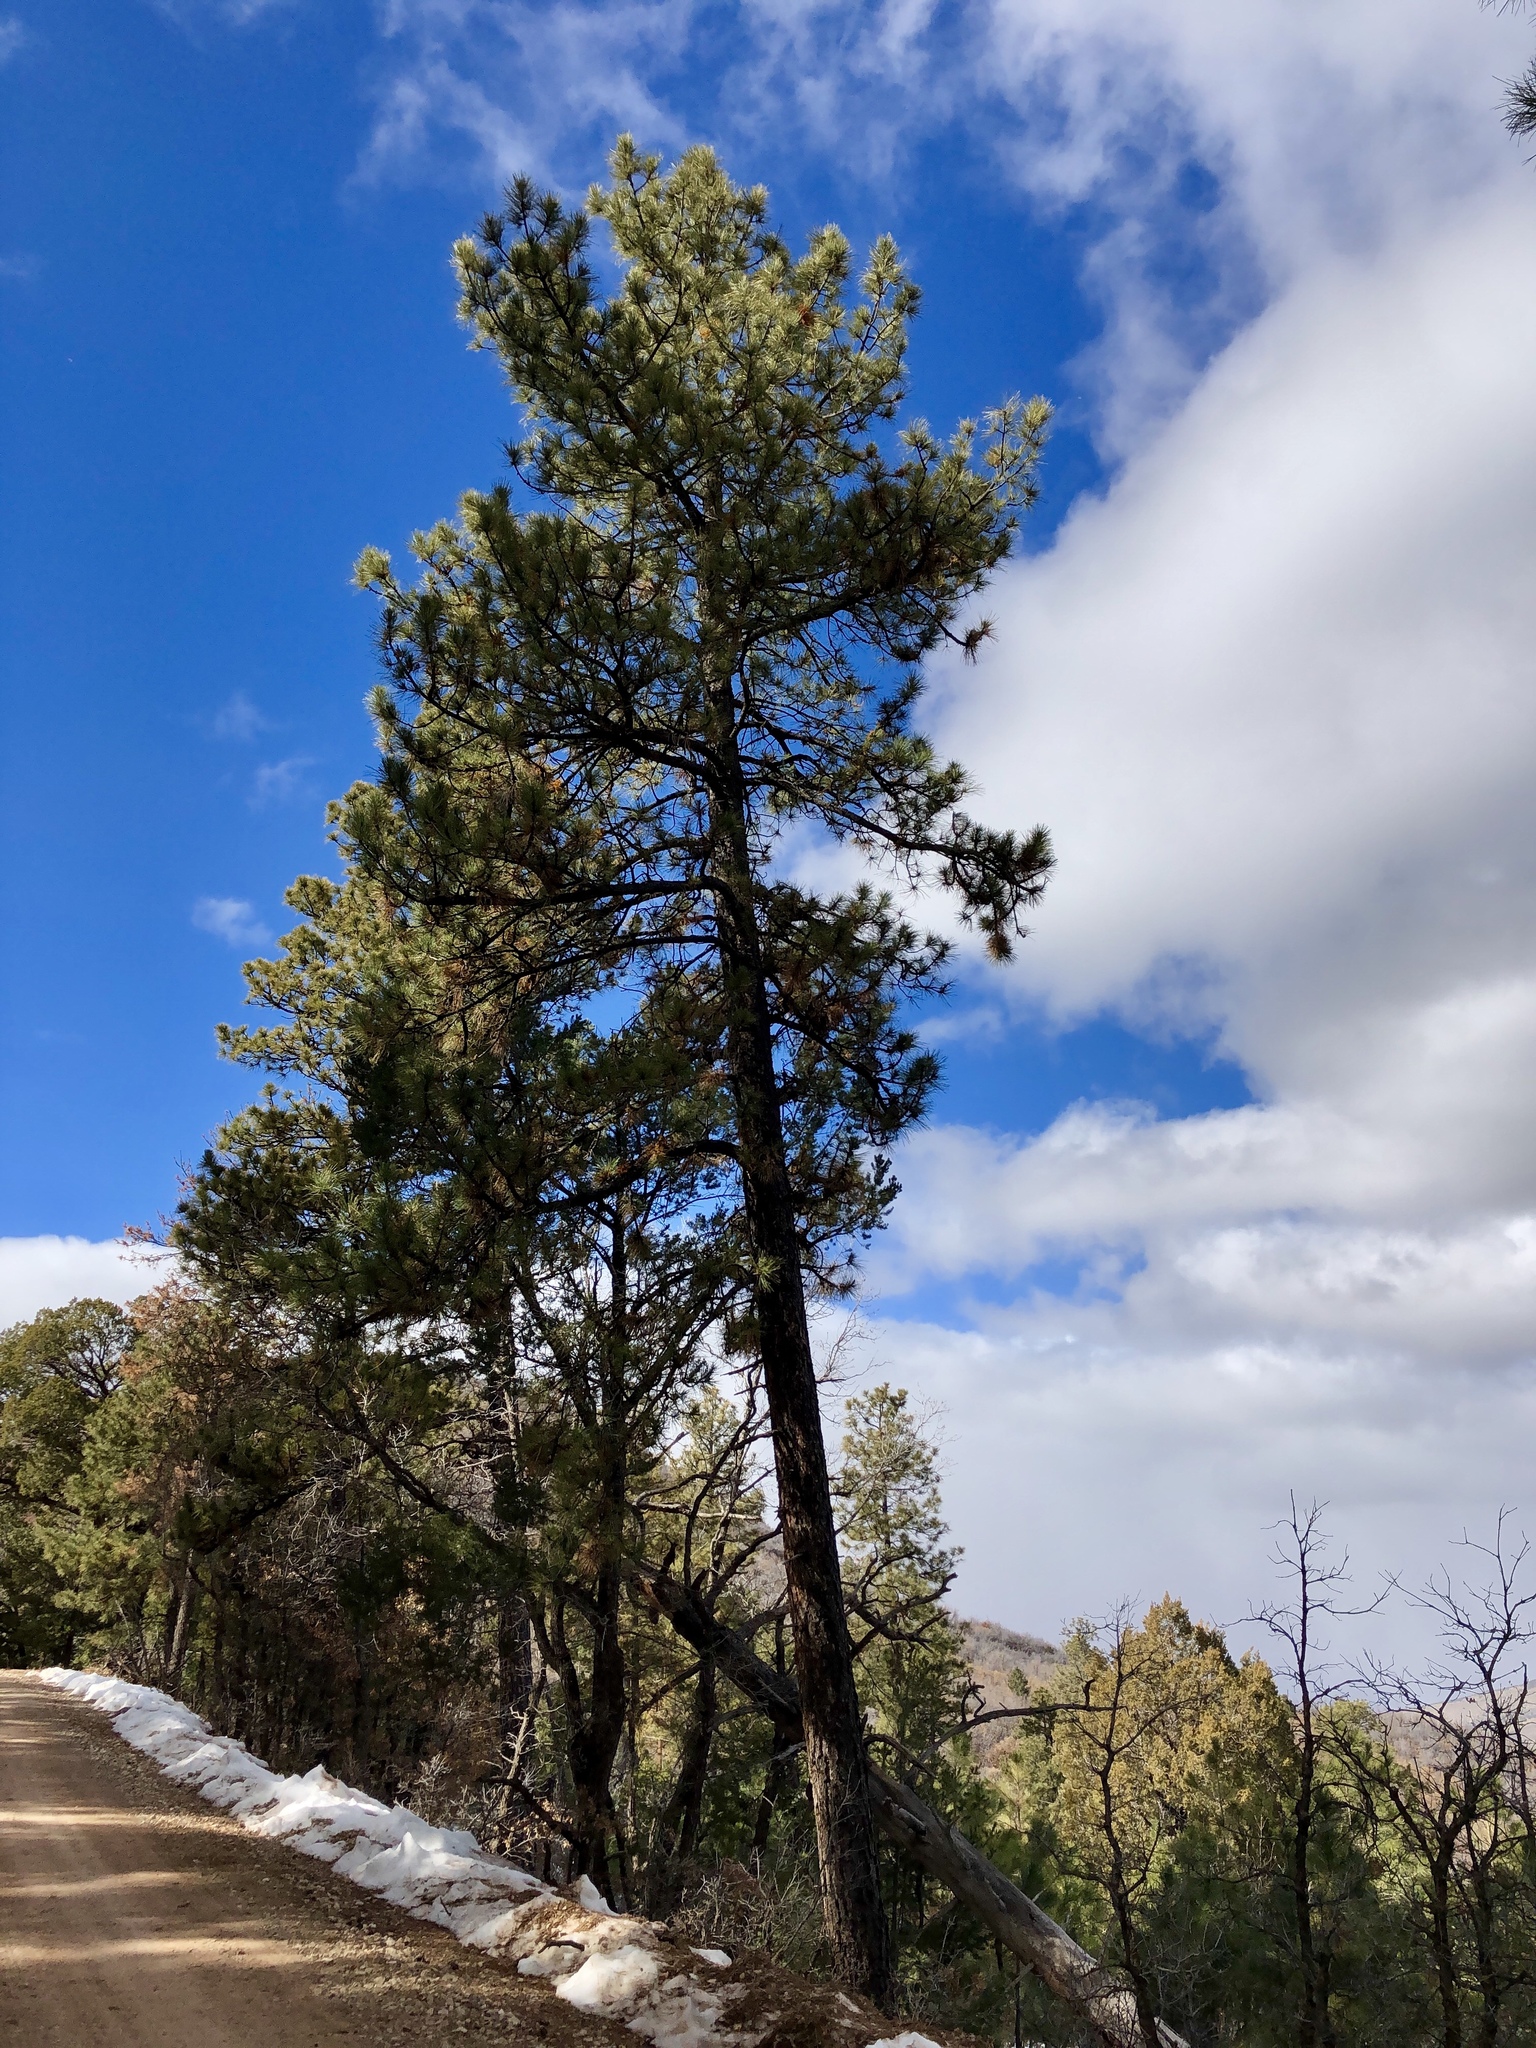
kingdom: Plantae
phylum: Tracheophyta
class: Pinopsida
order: Pinales
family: Pinaceae
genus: Pinus
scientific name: Pinus ponderosa
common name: Western yellow-pine
